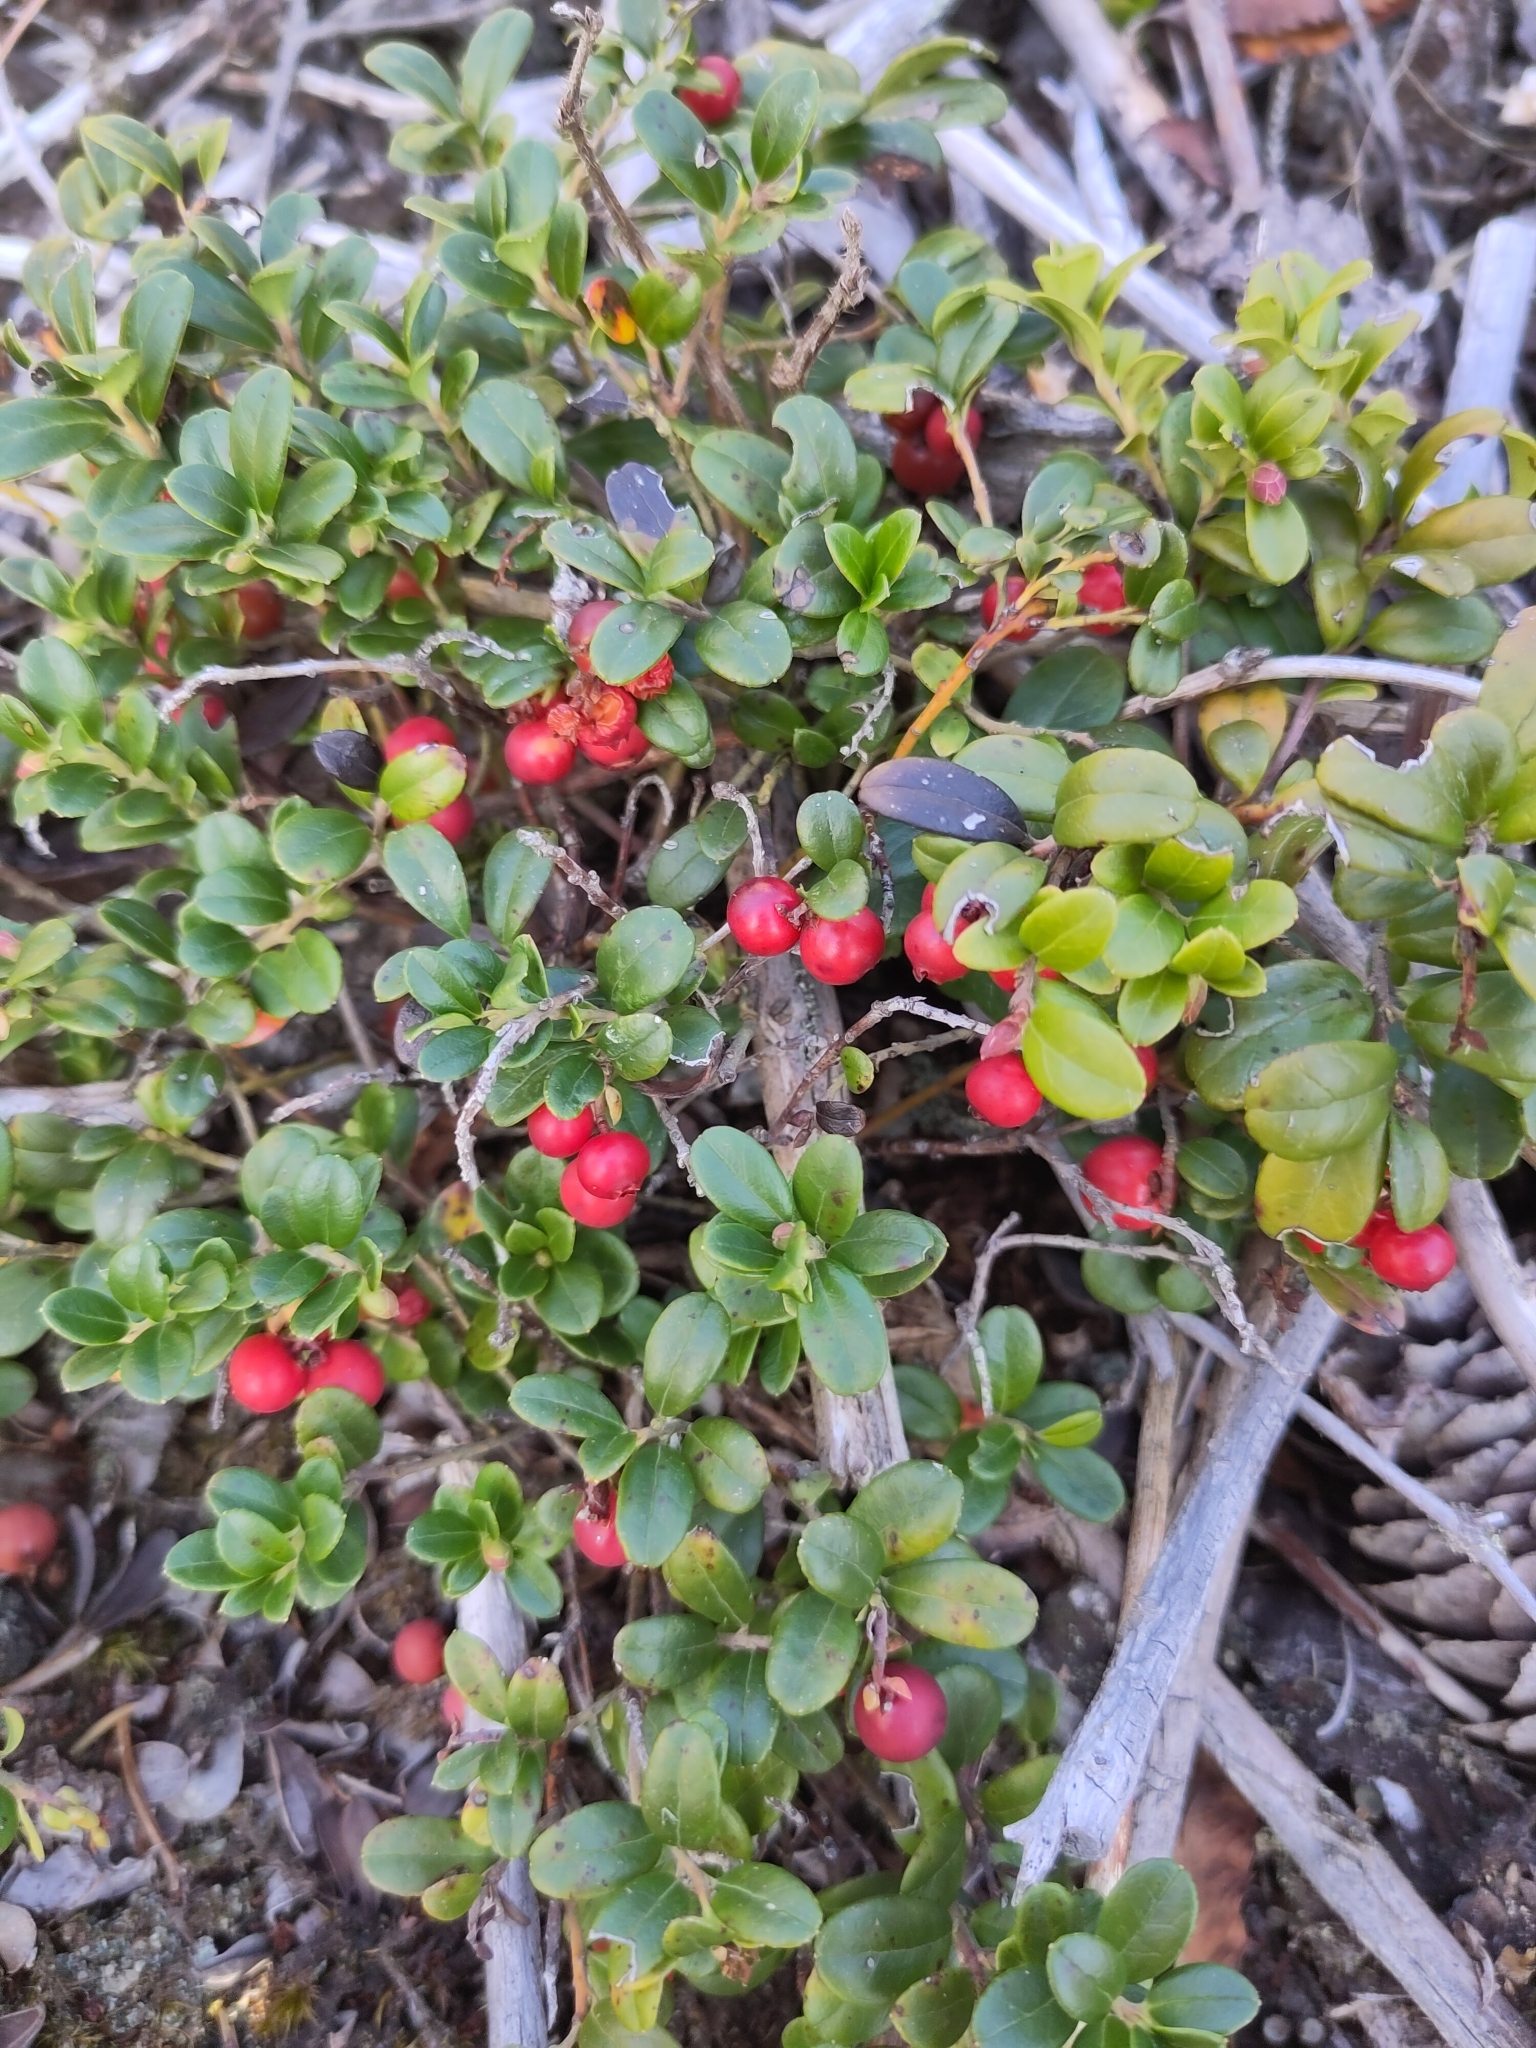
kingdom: Plantae
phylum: Tracheophyta
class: Magnoliopsida
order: Ericales
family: Ericaceae
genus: Vaccinium
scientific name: Vaccinium vitis-idaea
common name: Cowberry
